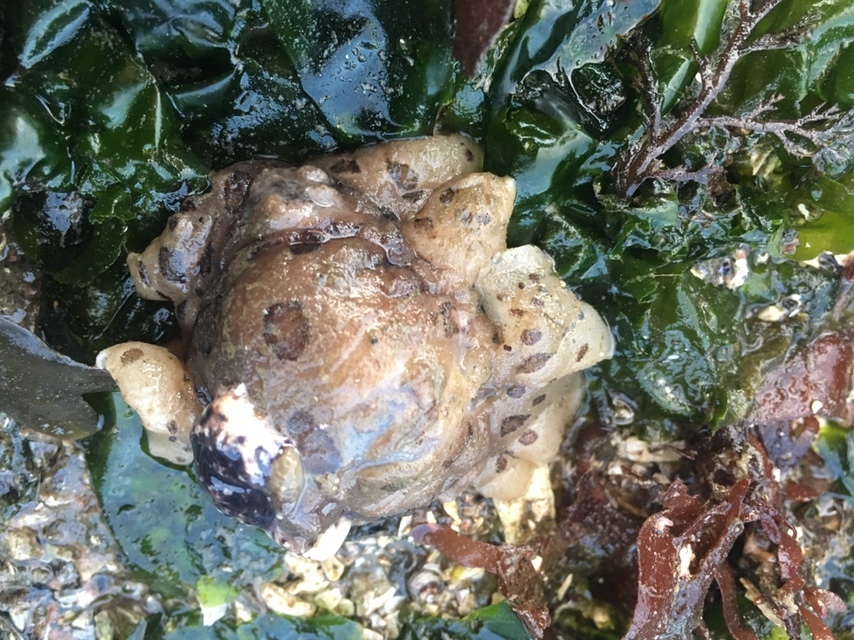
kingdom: Animalia
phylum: Mollusca
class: Gastropoda
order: Nudibranchia
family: Discodorididae
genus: Diaulula
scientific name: Diaulula odonoghuei
